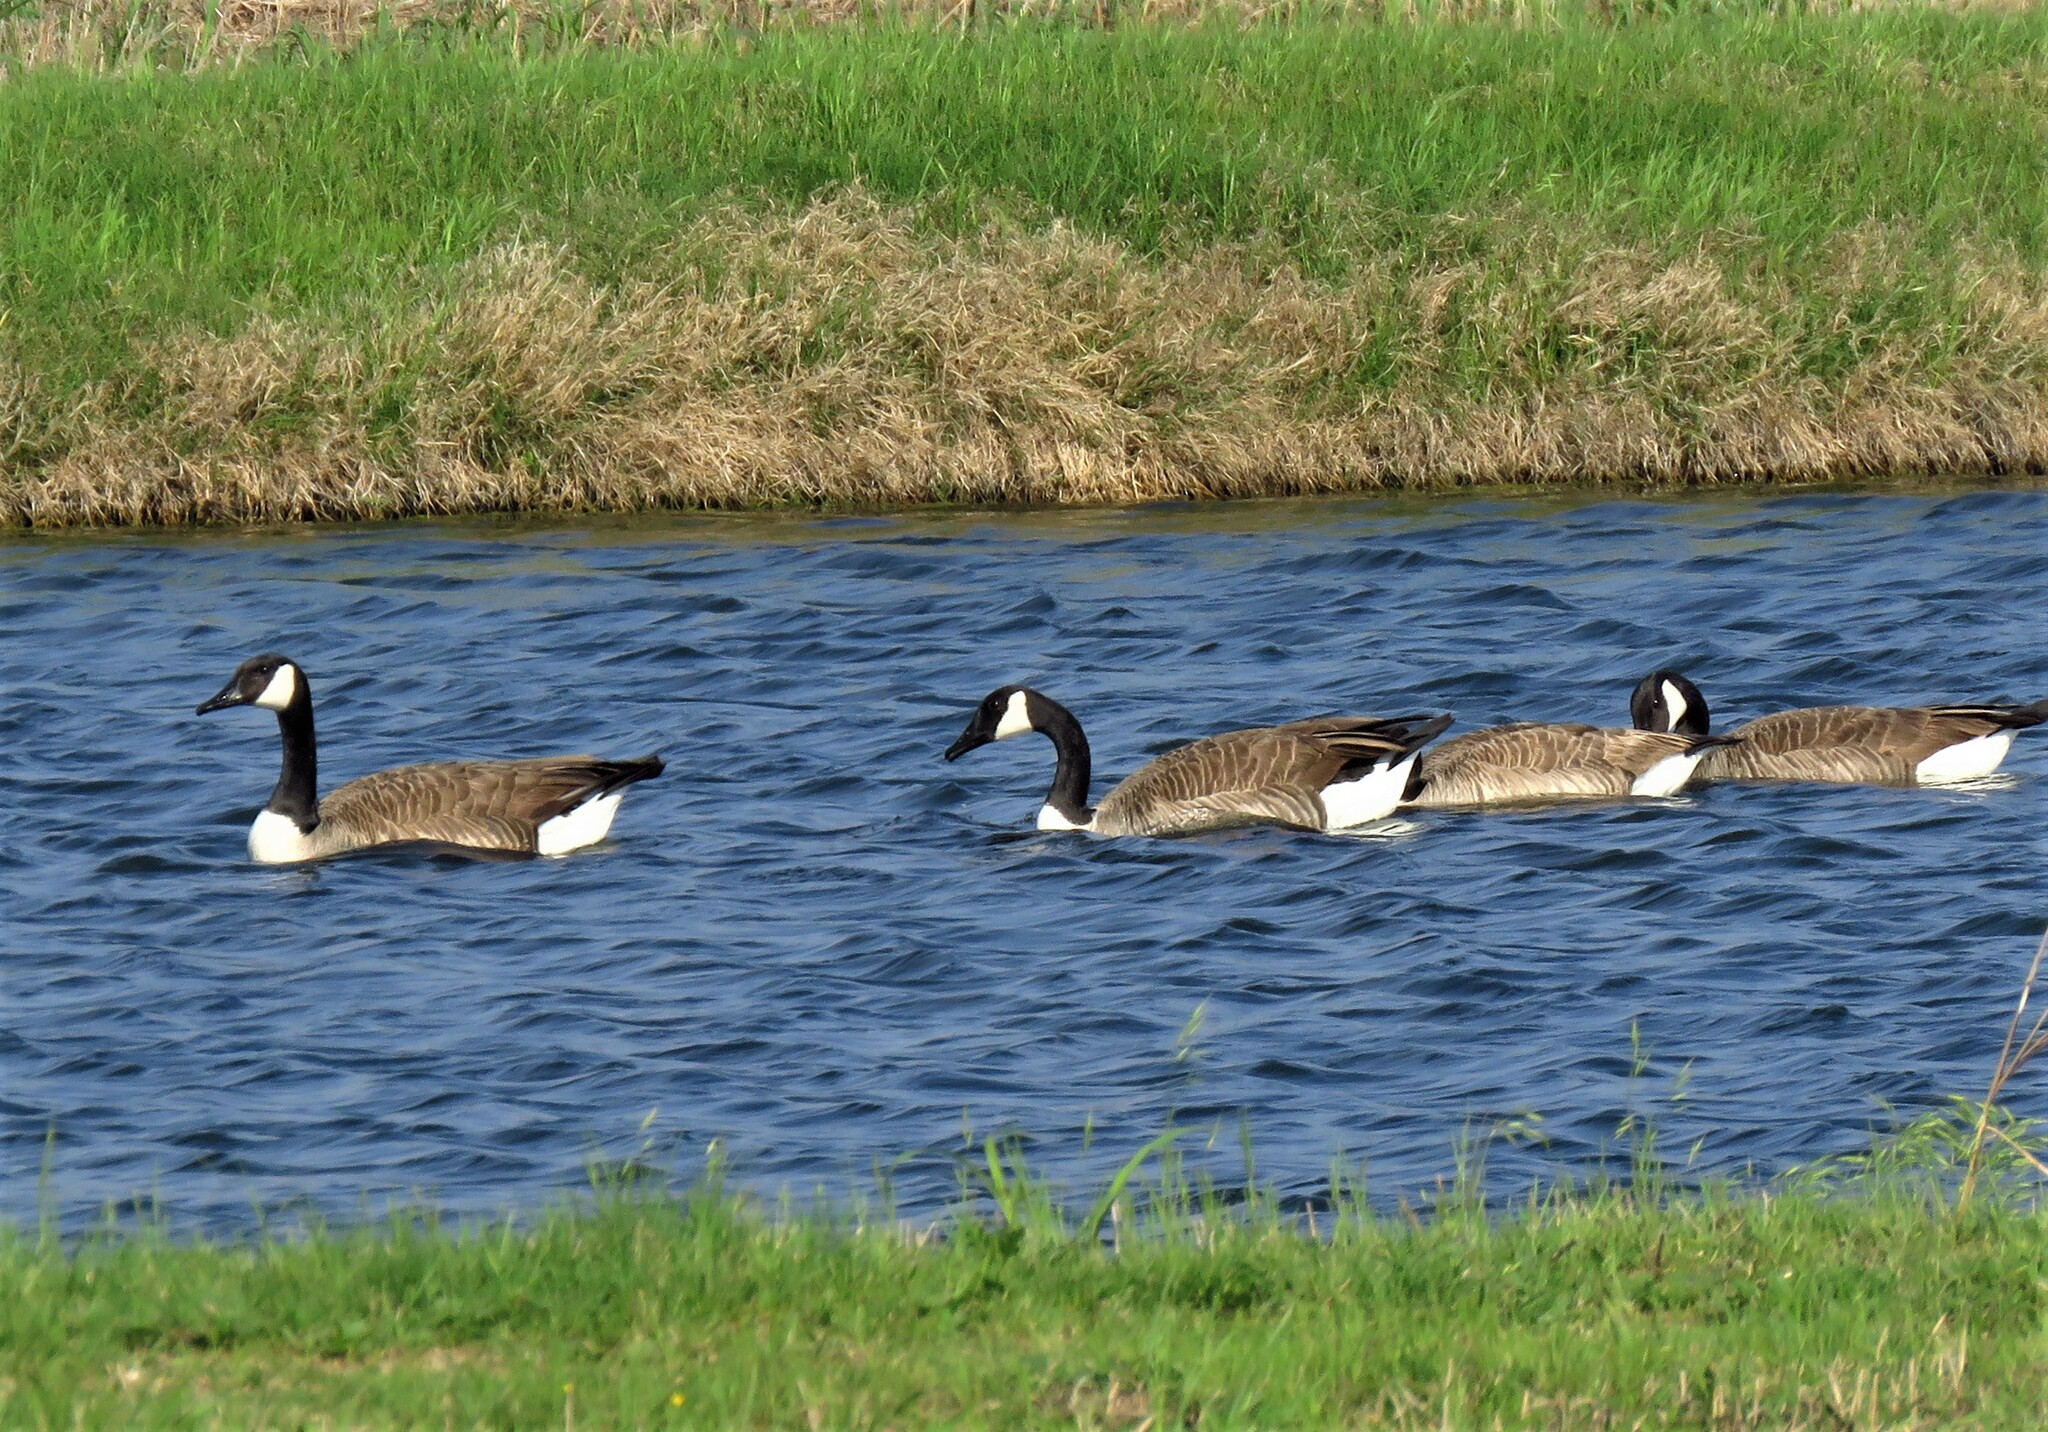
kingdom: Animalia
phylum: Chordata
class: Aves
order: Anseriformes
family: Anatidae
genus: Branta
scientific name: Branta canadensis
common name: Canada goose
